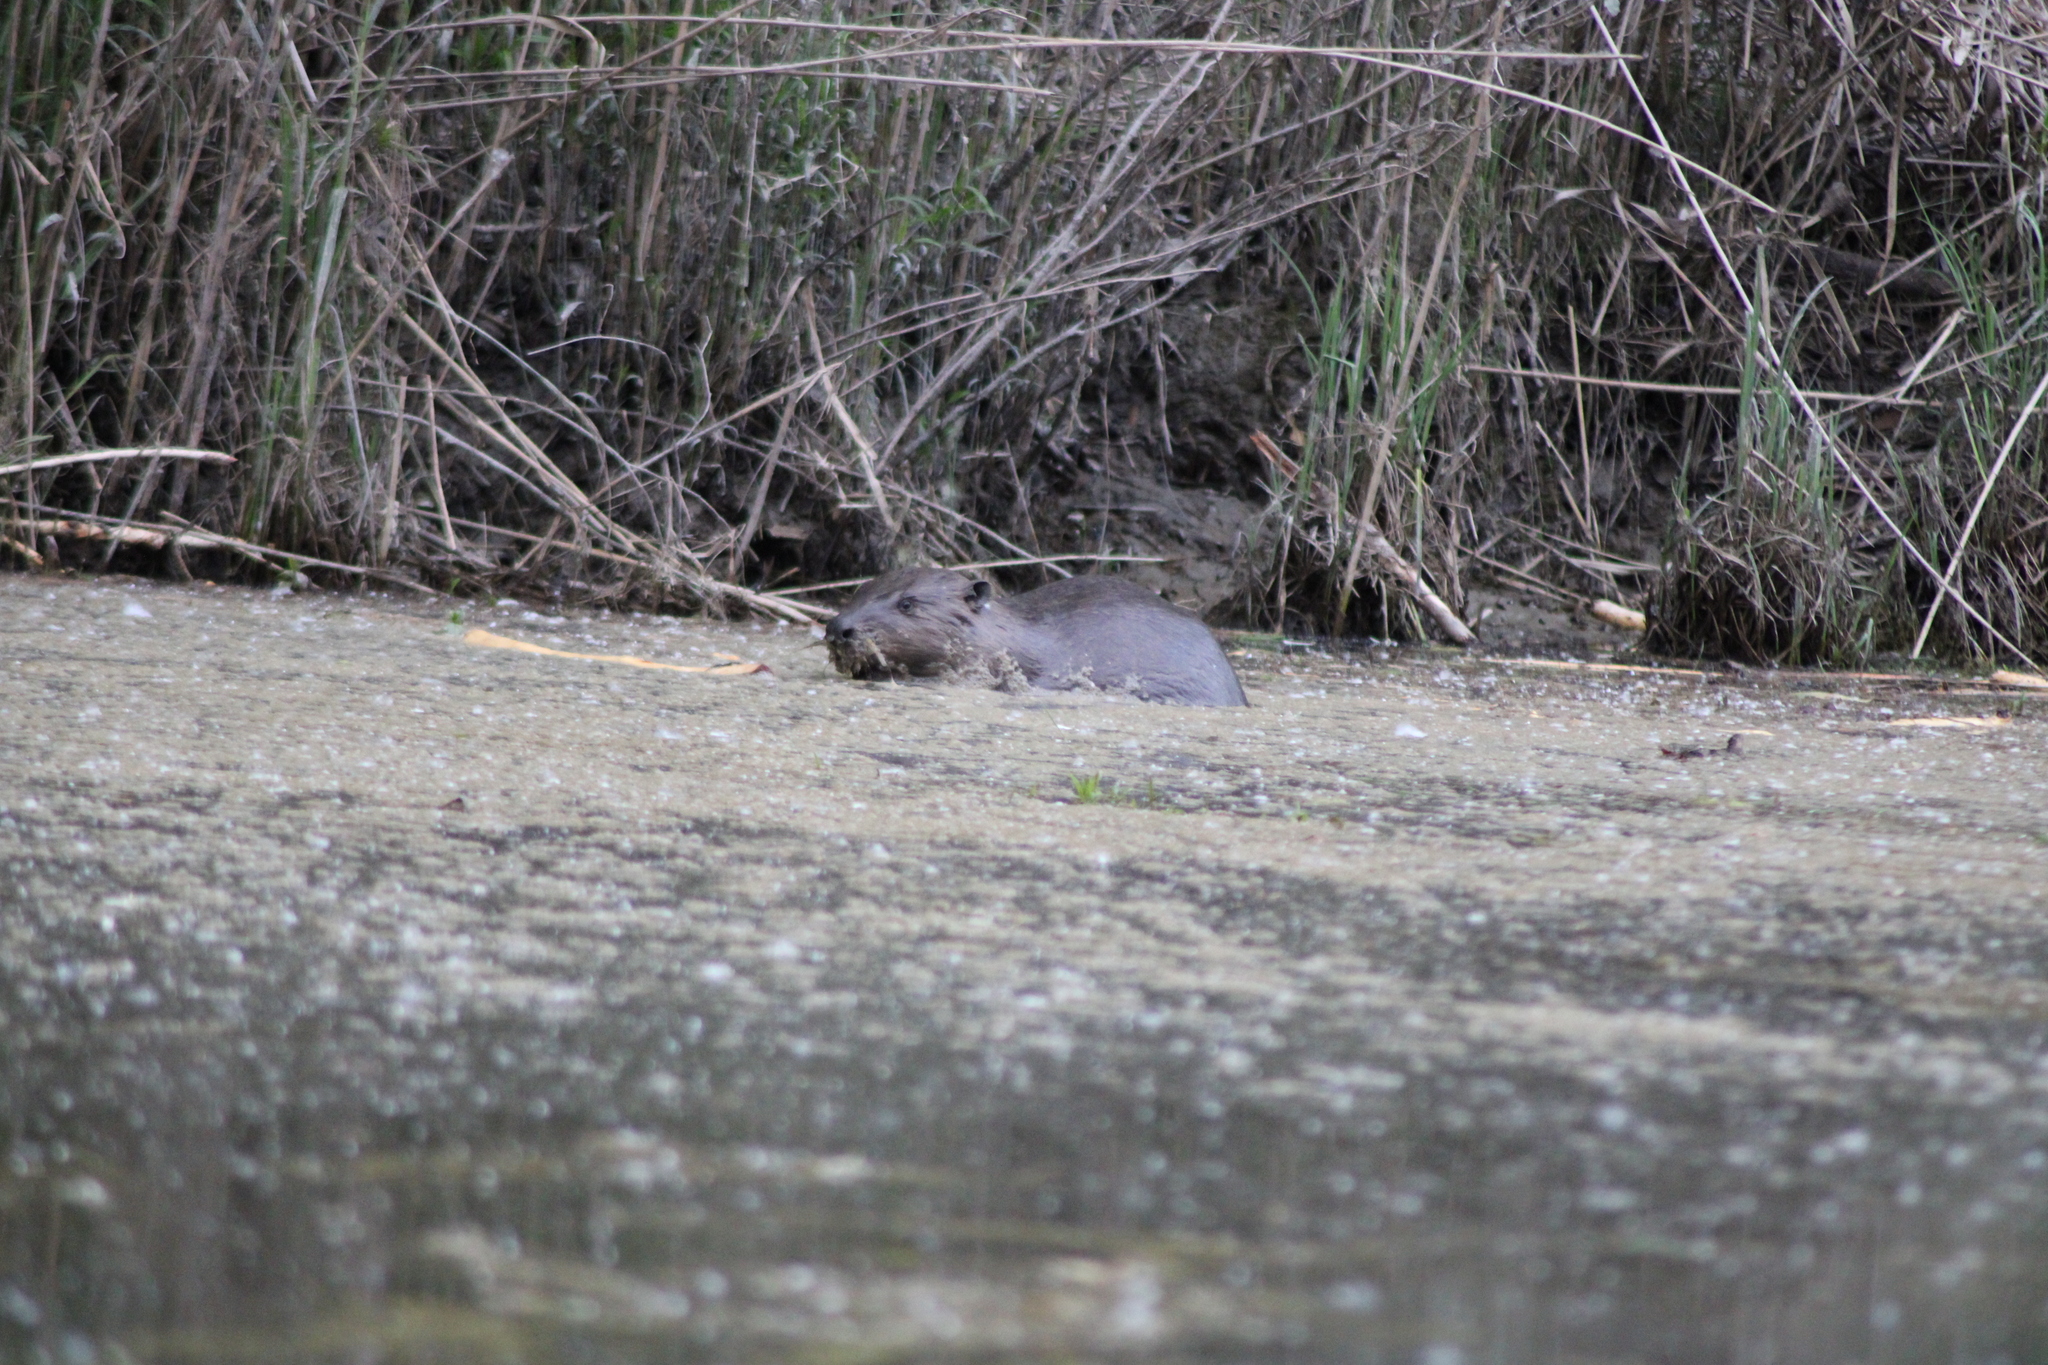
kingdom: Animalia
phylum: Chordata
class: Mammalia
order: Rodentia
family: Castoridae
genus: Castor
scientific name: Castor fiber
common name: Eurasian beaver
